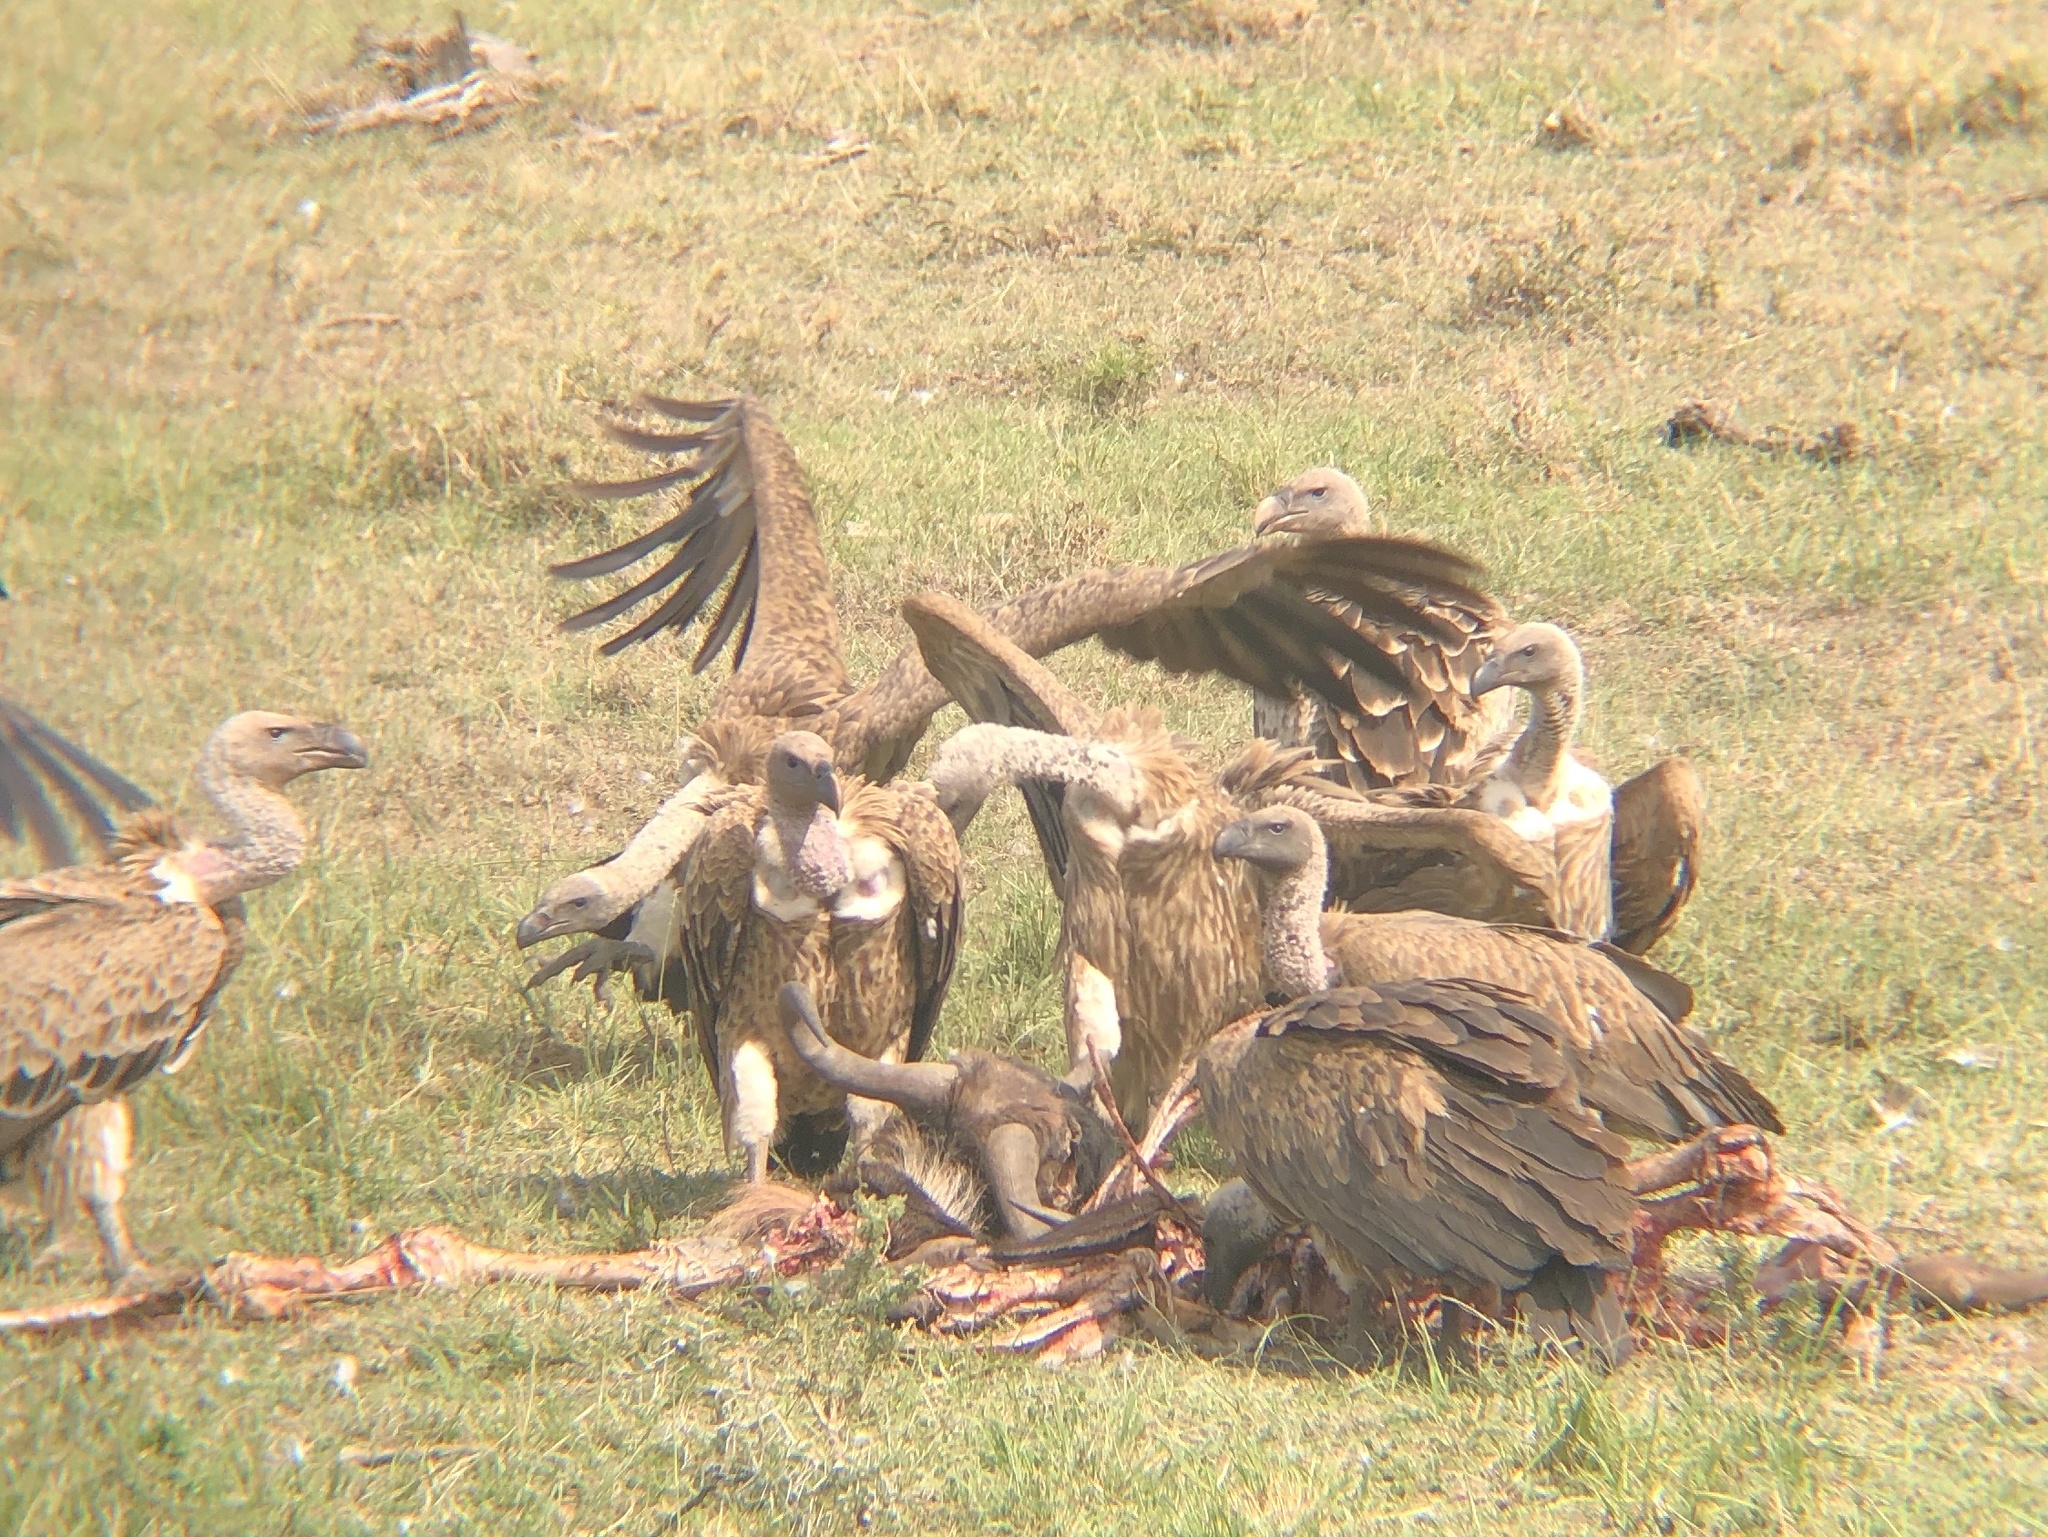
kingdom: Animalia
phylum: Chordata
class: Aves
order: Accipitriformes
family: Accipitridae
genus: Gyps
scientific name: Gyps africanus
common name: White-backed vulture
